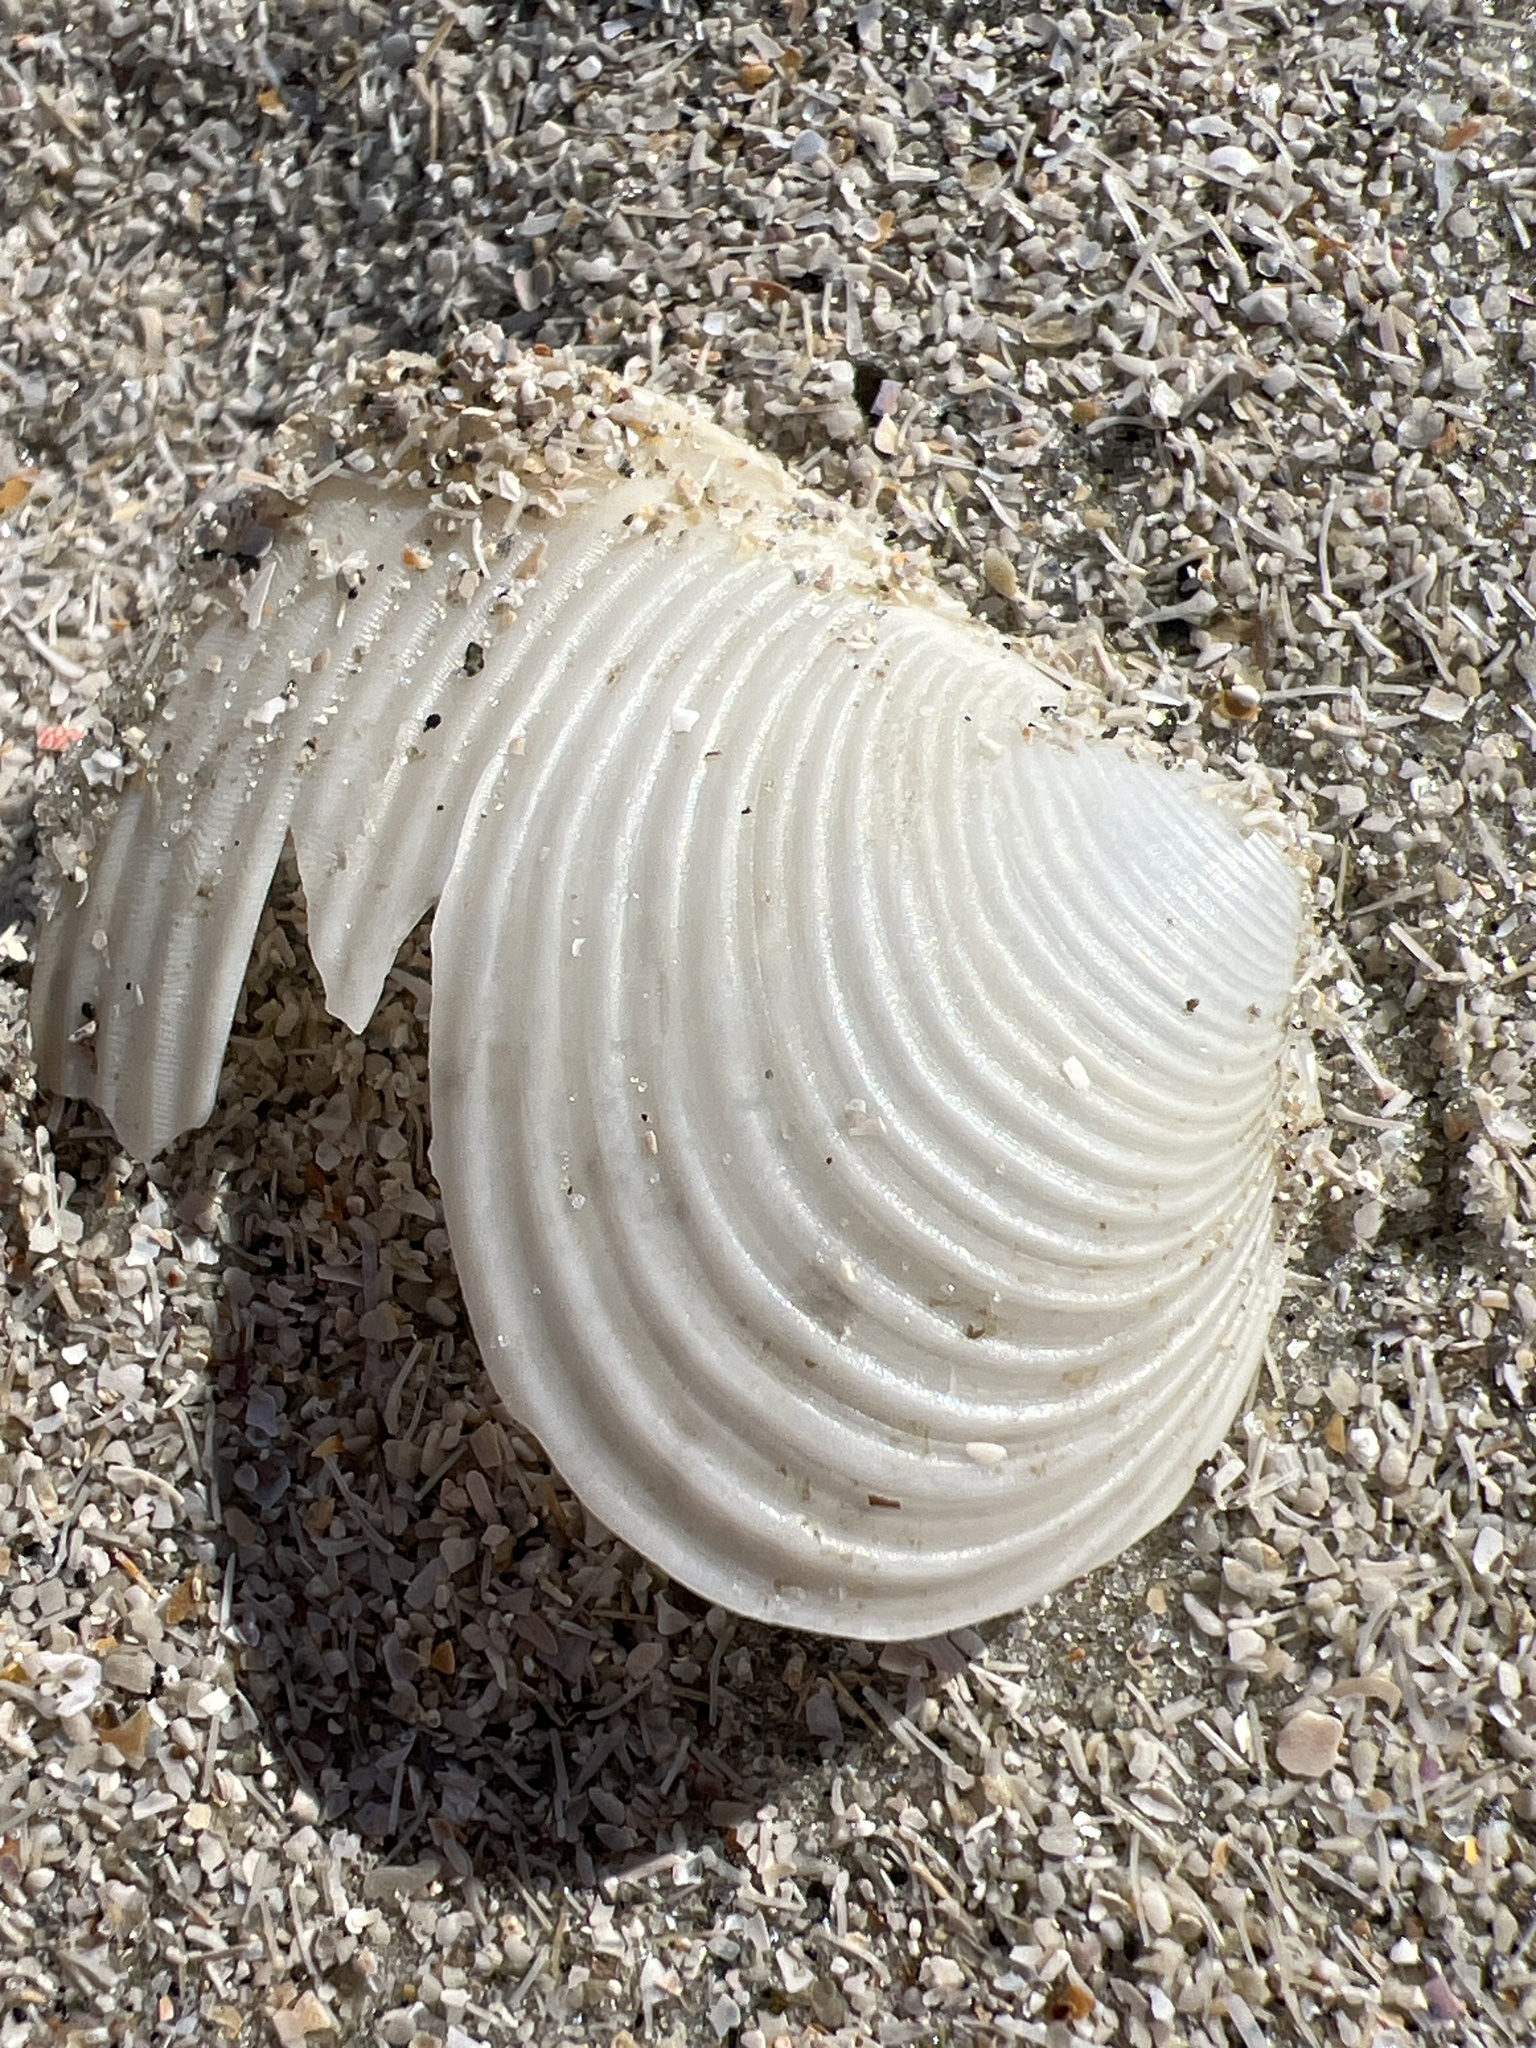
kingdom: Animalia
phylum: Mollusca
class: Bivalvia
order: Venerida
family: Anatinellidae
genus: Raeta
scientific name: Raeta plicatella
